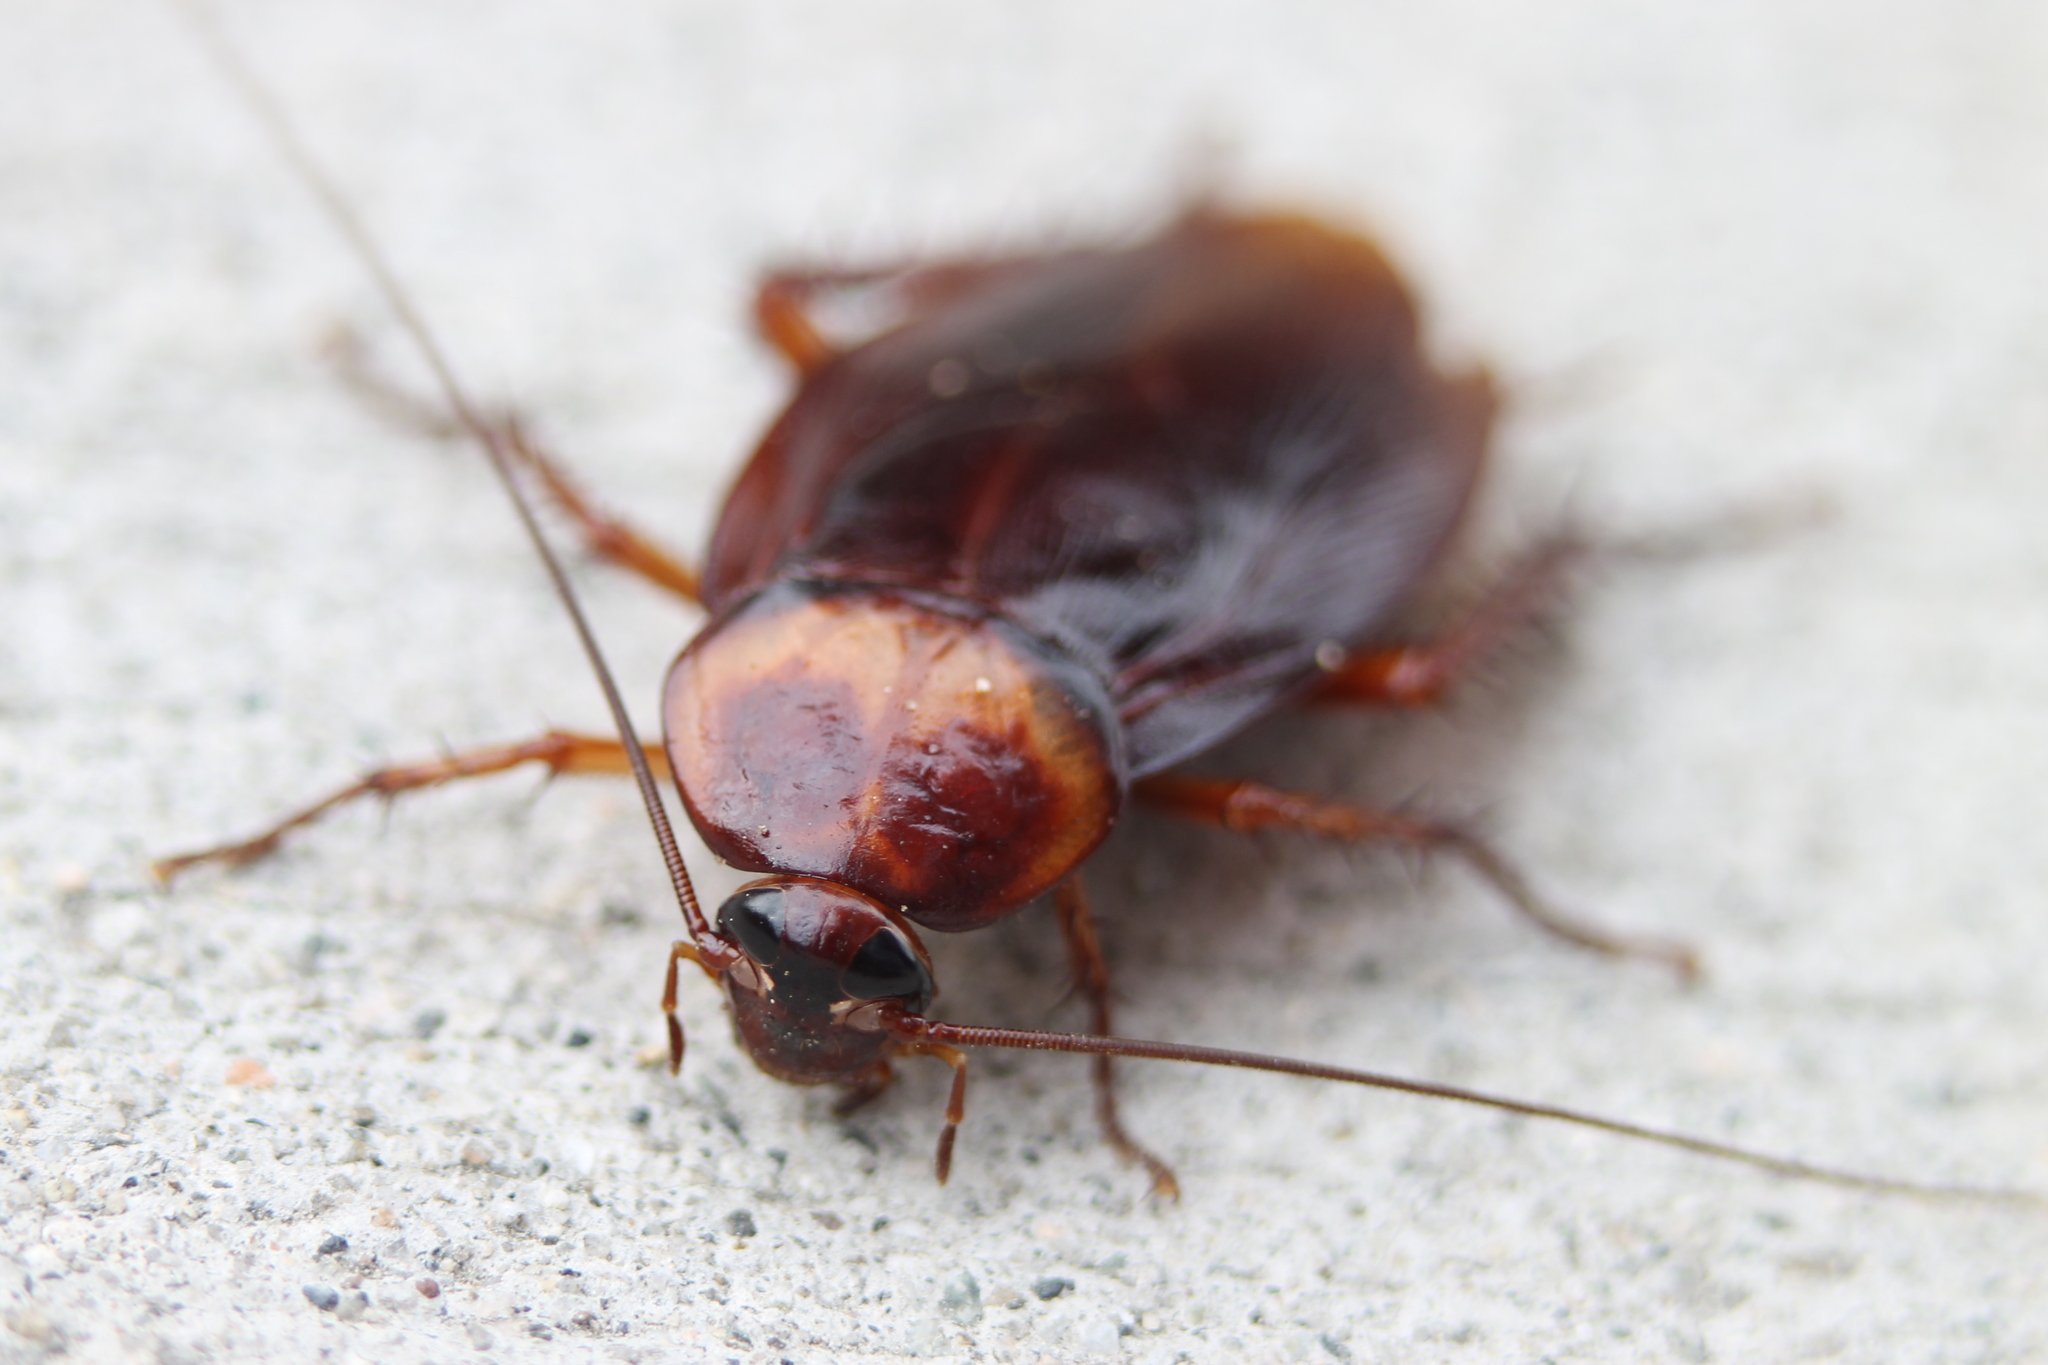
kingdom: Animalia
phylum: Arthropoda
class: Insecta
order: Blattodea
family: Blattidae
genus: Periplaneta
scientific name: Periplaneta americana
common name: American cockroach
